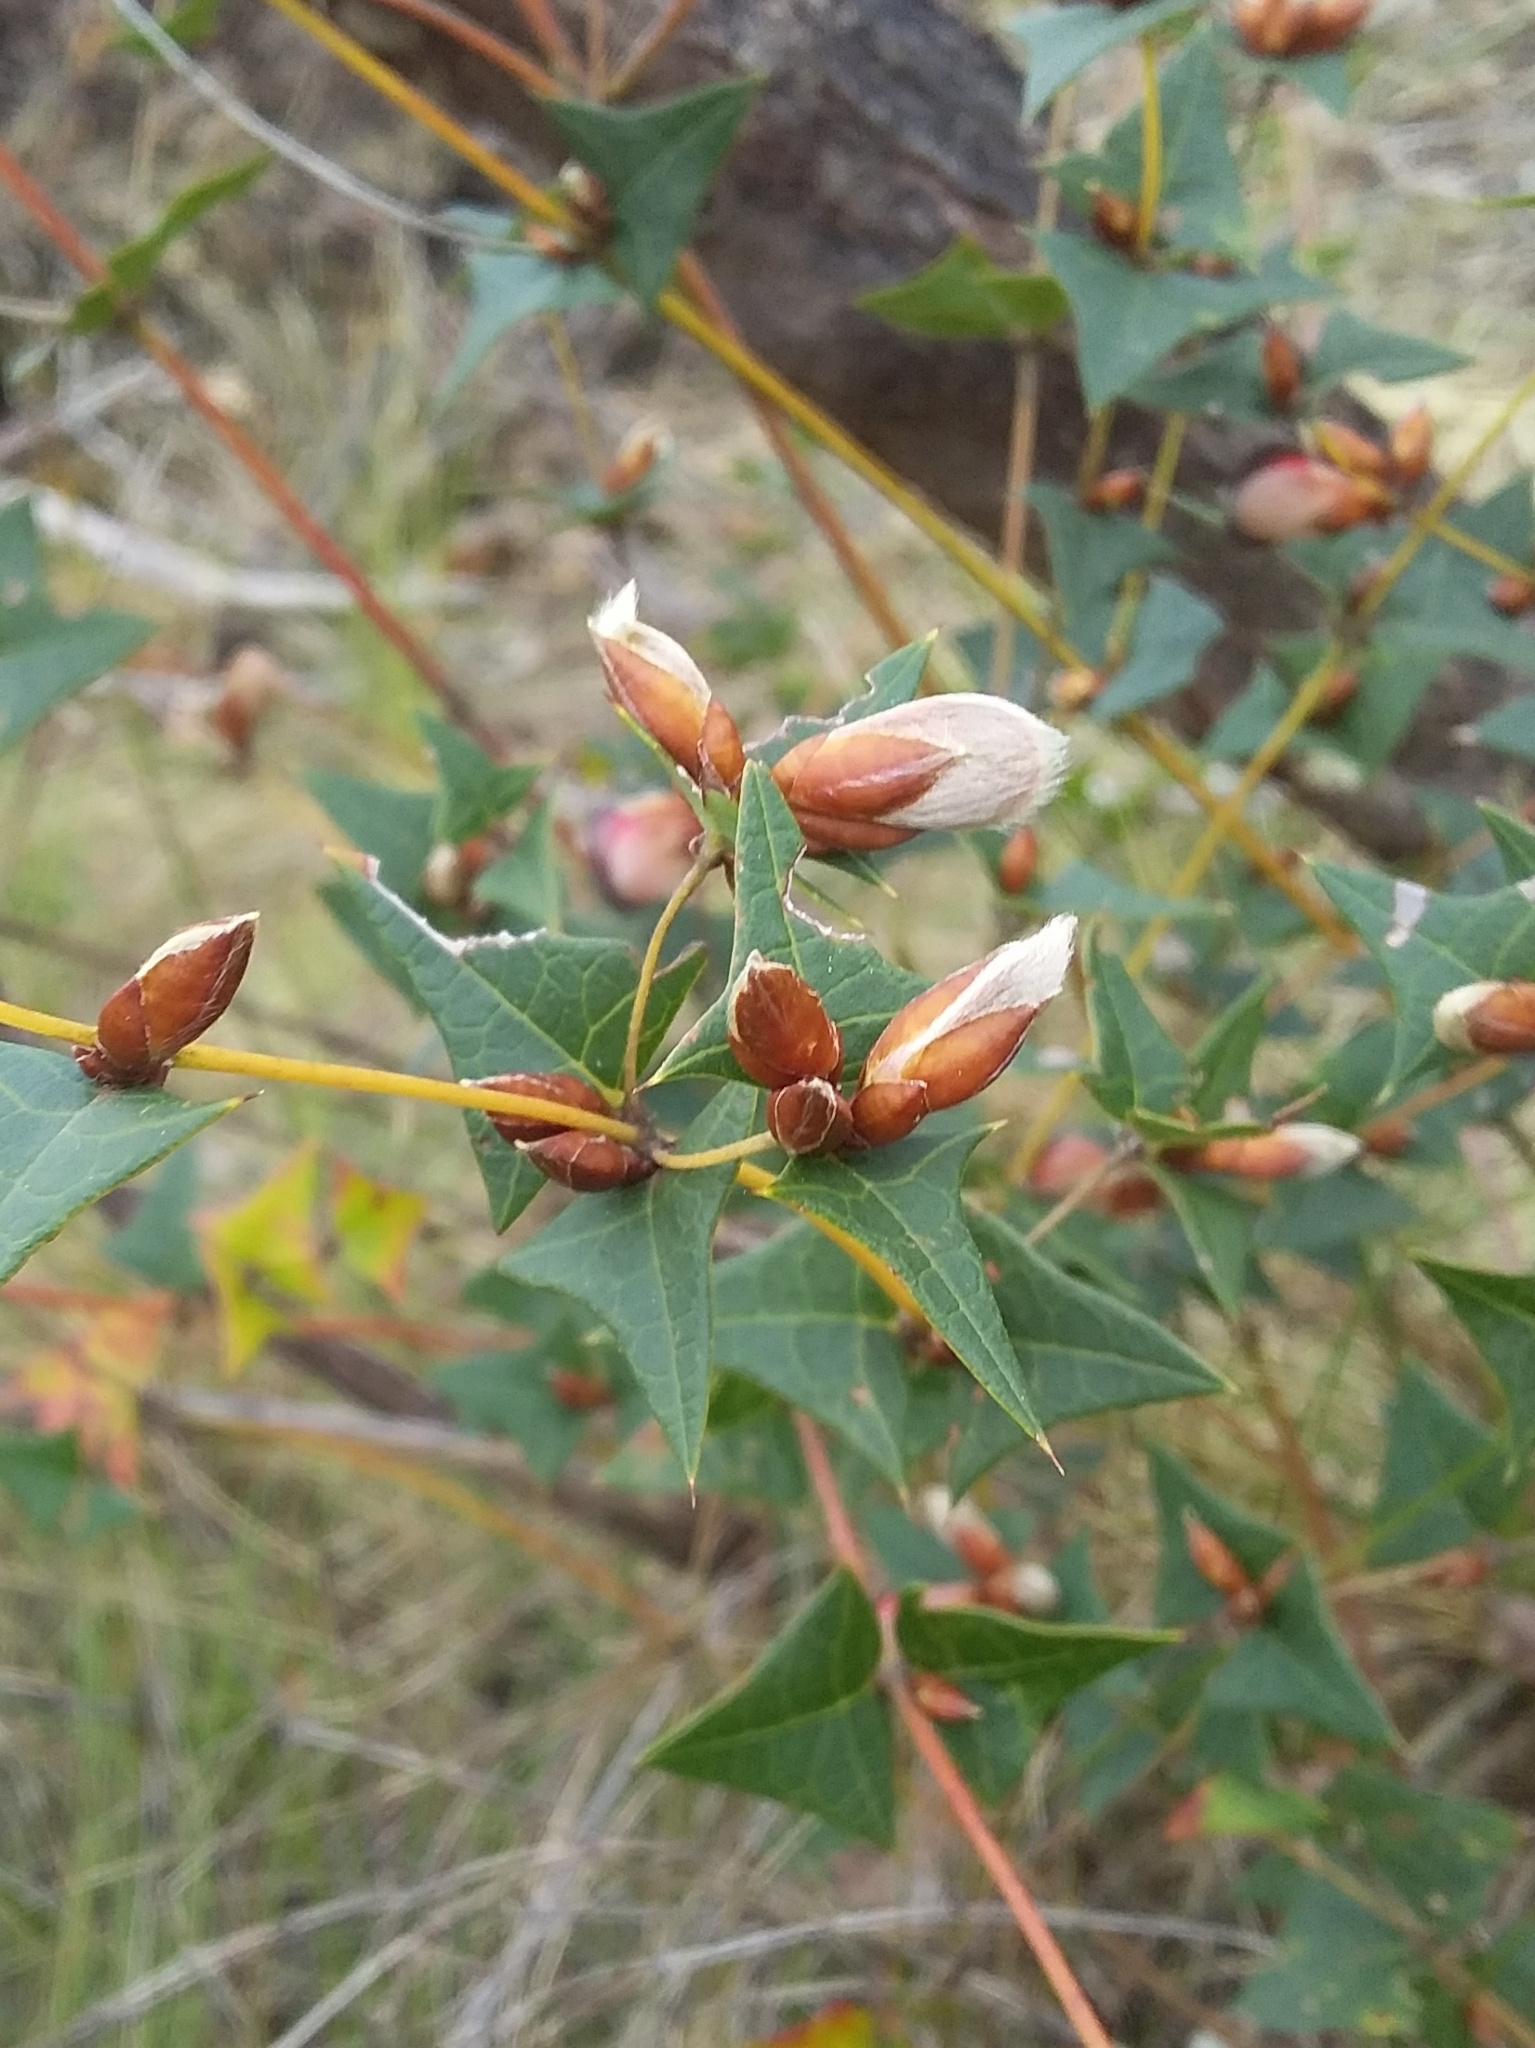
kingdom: Plantae
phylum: Tracheophyta
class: Magnoliopsida
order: Fabales
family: Fabaceae
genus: Platylobium
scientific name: Platylobium obtusangulum
